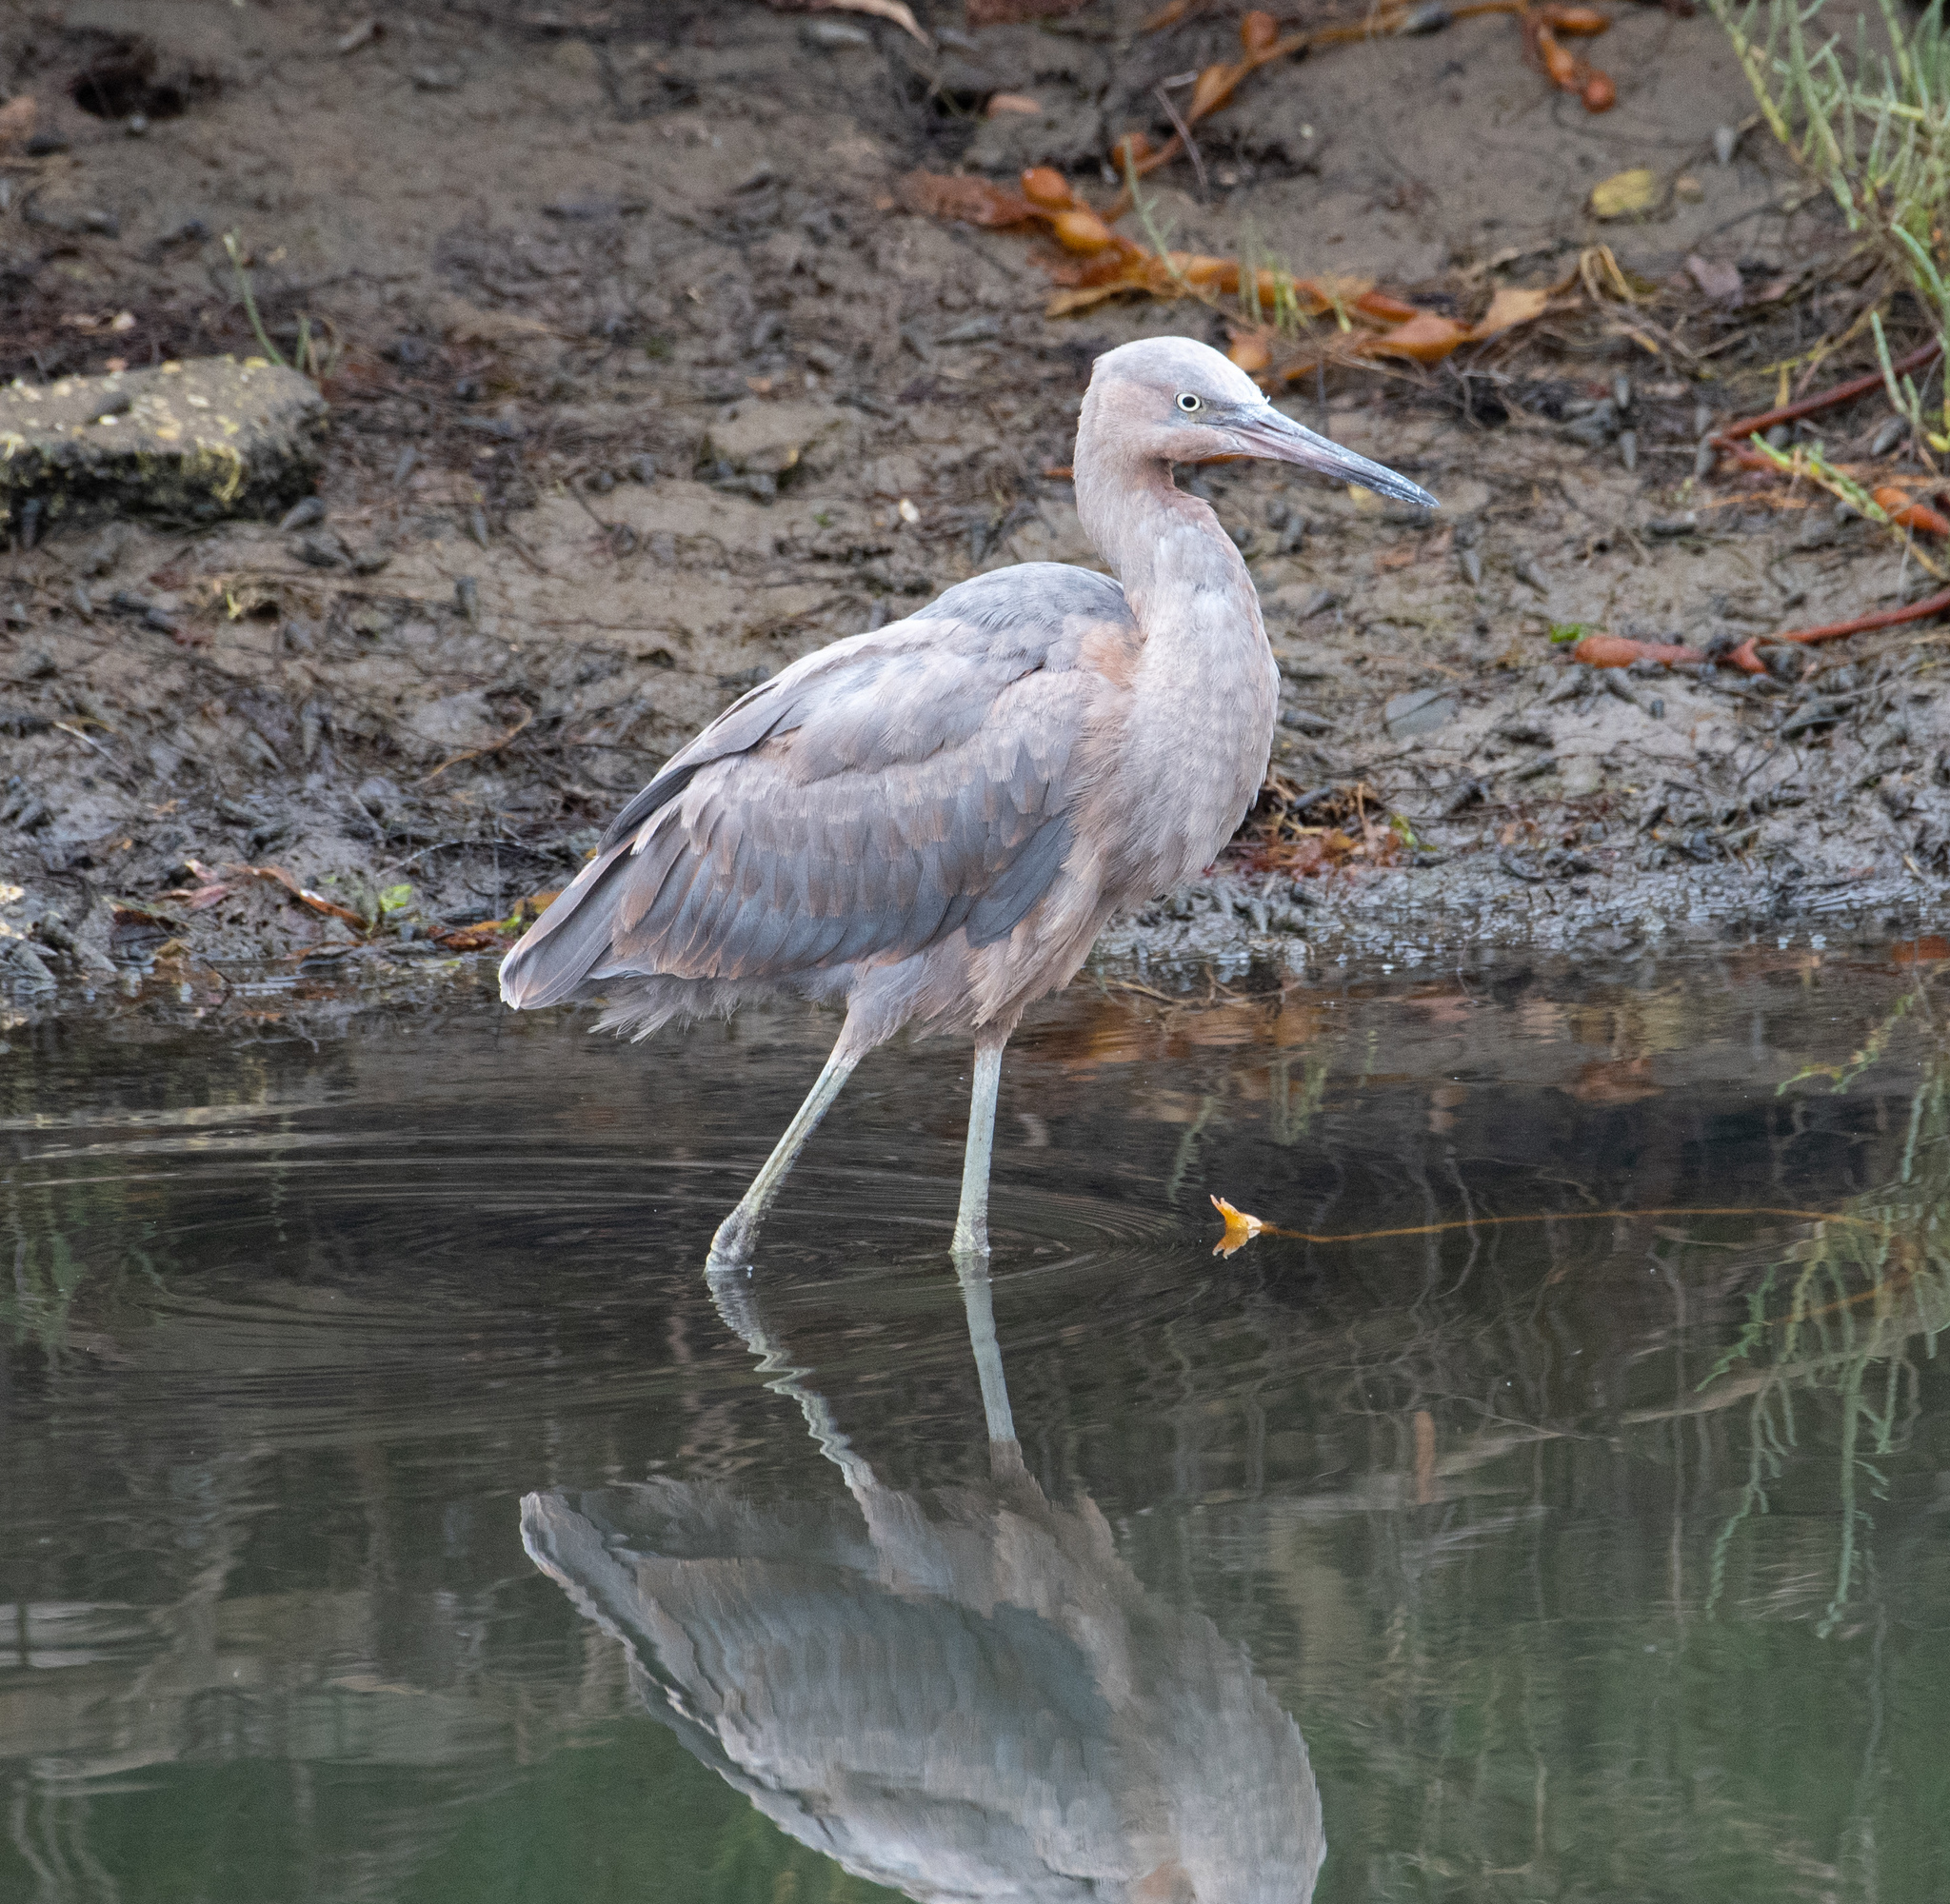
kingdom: Animalia
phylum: Chordata
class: Aves
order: Pelecaniformes
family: Ardeidae
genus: Egretta
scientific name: Egretta rufescens
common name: Reddish egret
